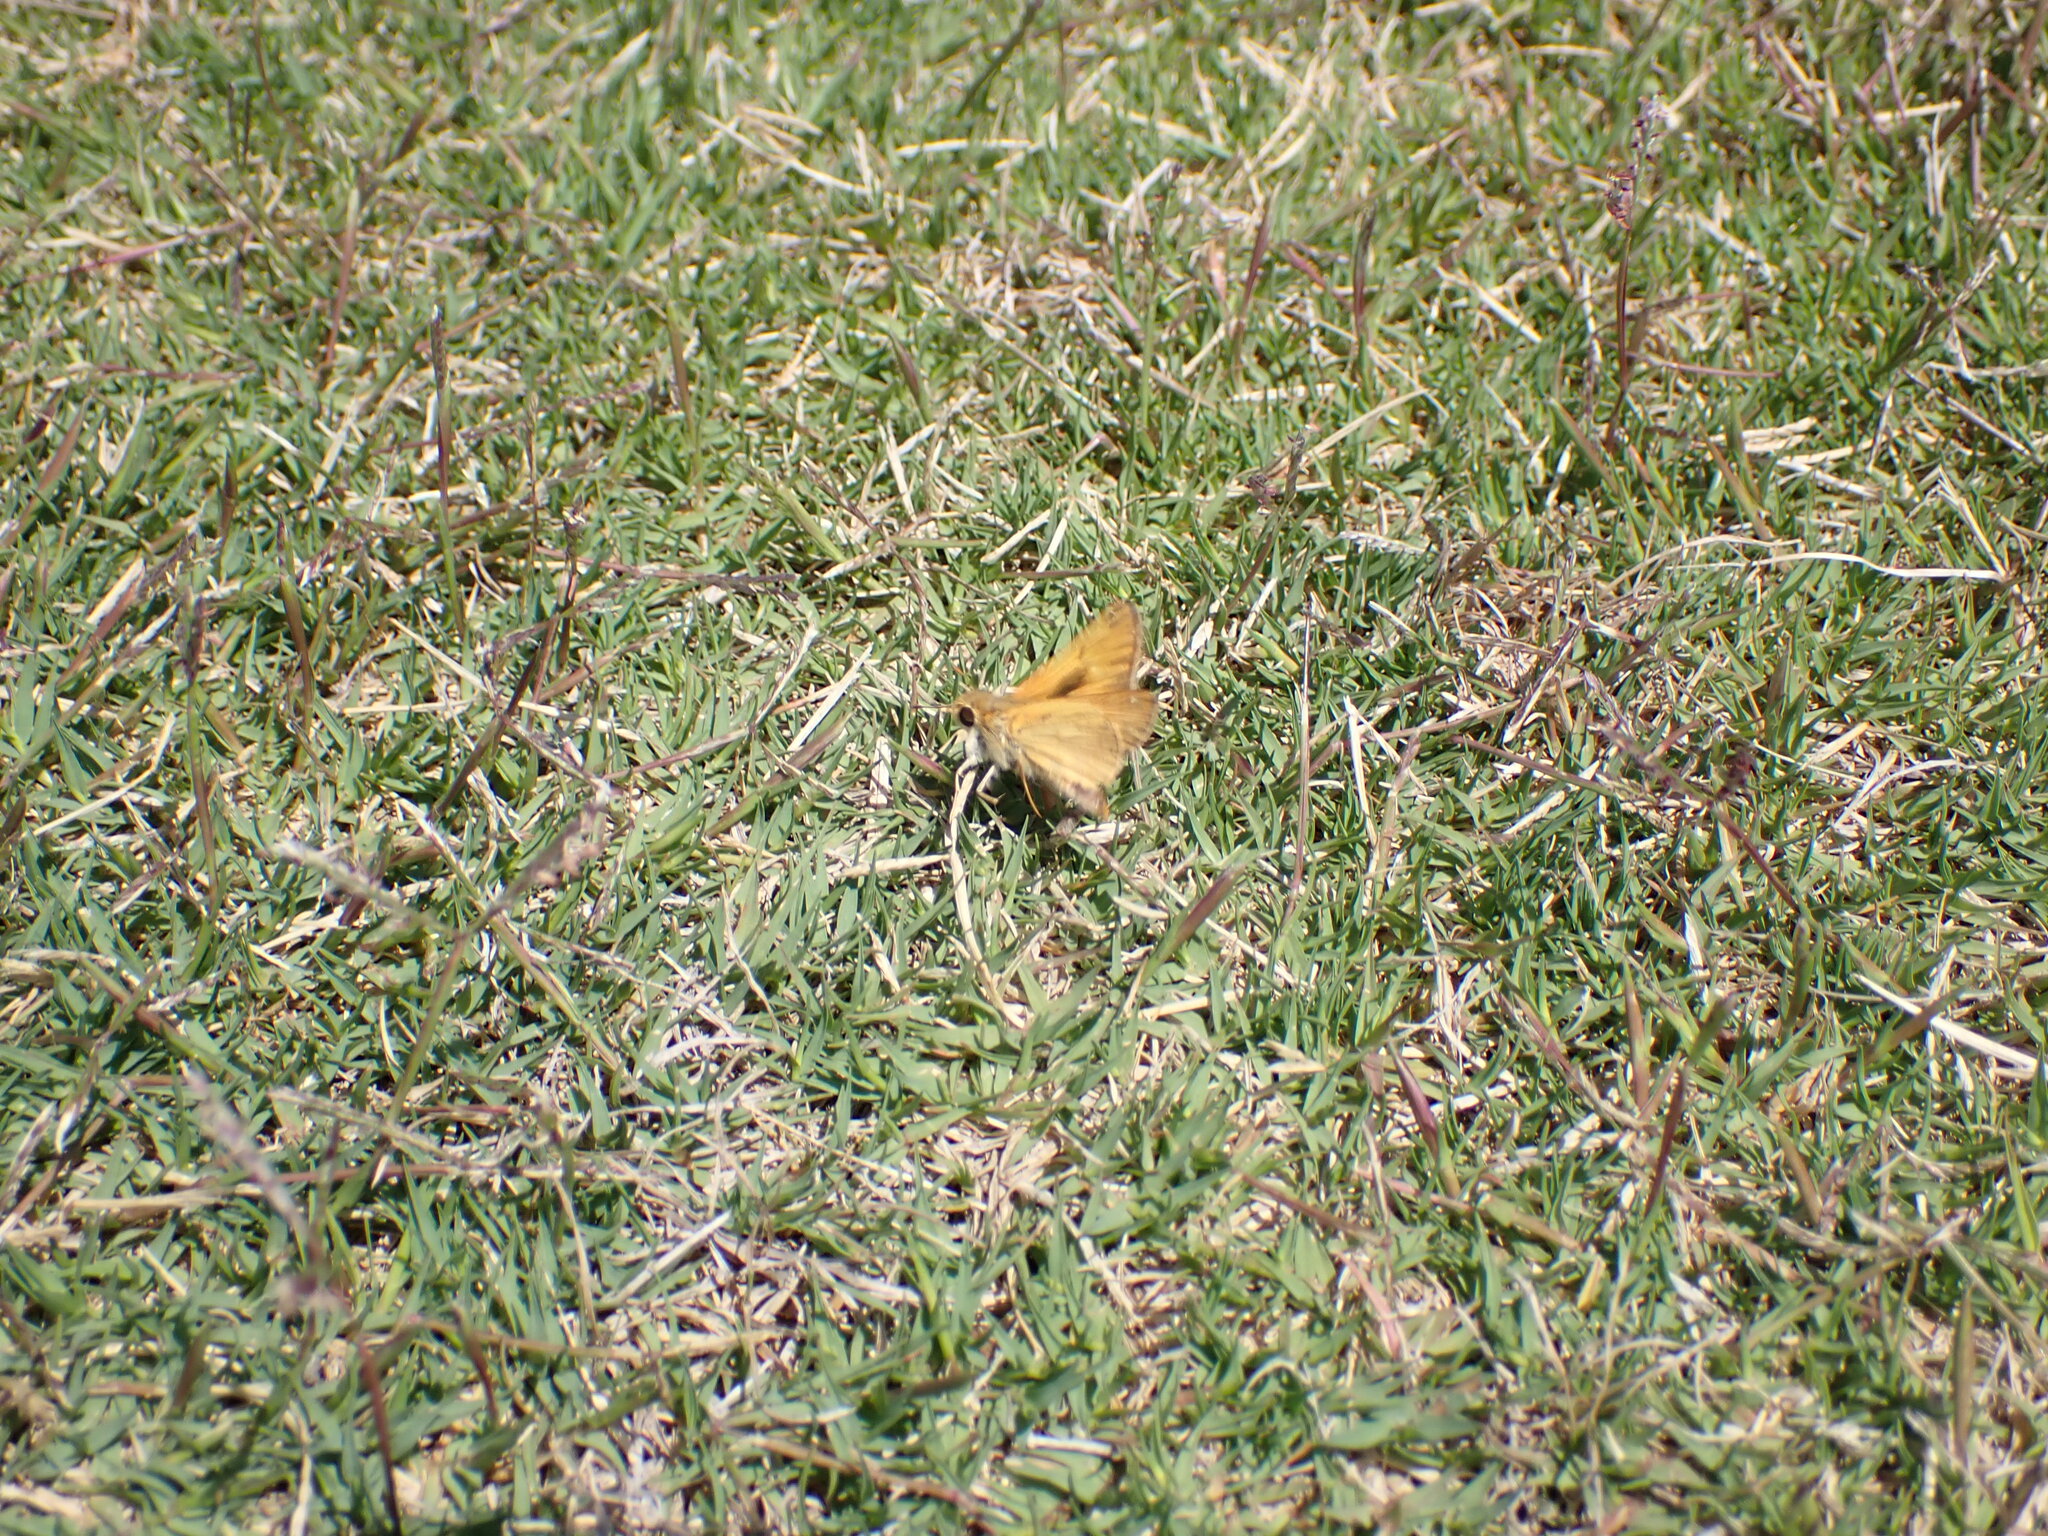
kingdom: Animalia
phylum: Arthropoda
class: Insecta
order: Lepidoptera
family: Hesperiidae
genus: Hylephila
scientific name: Hylephila phyleus
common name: Fiery skipper
